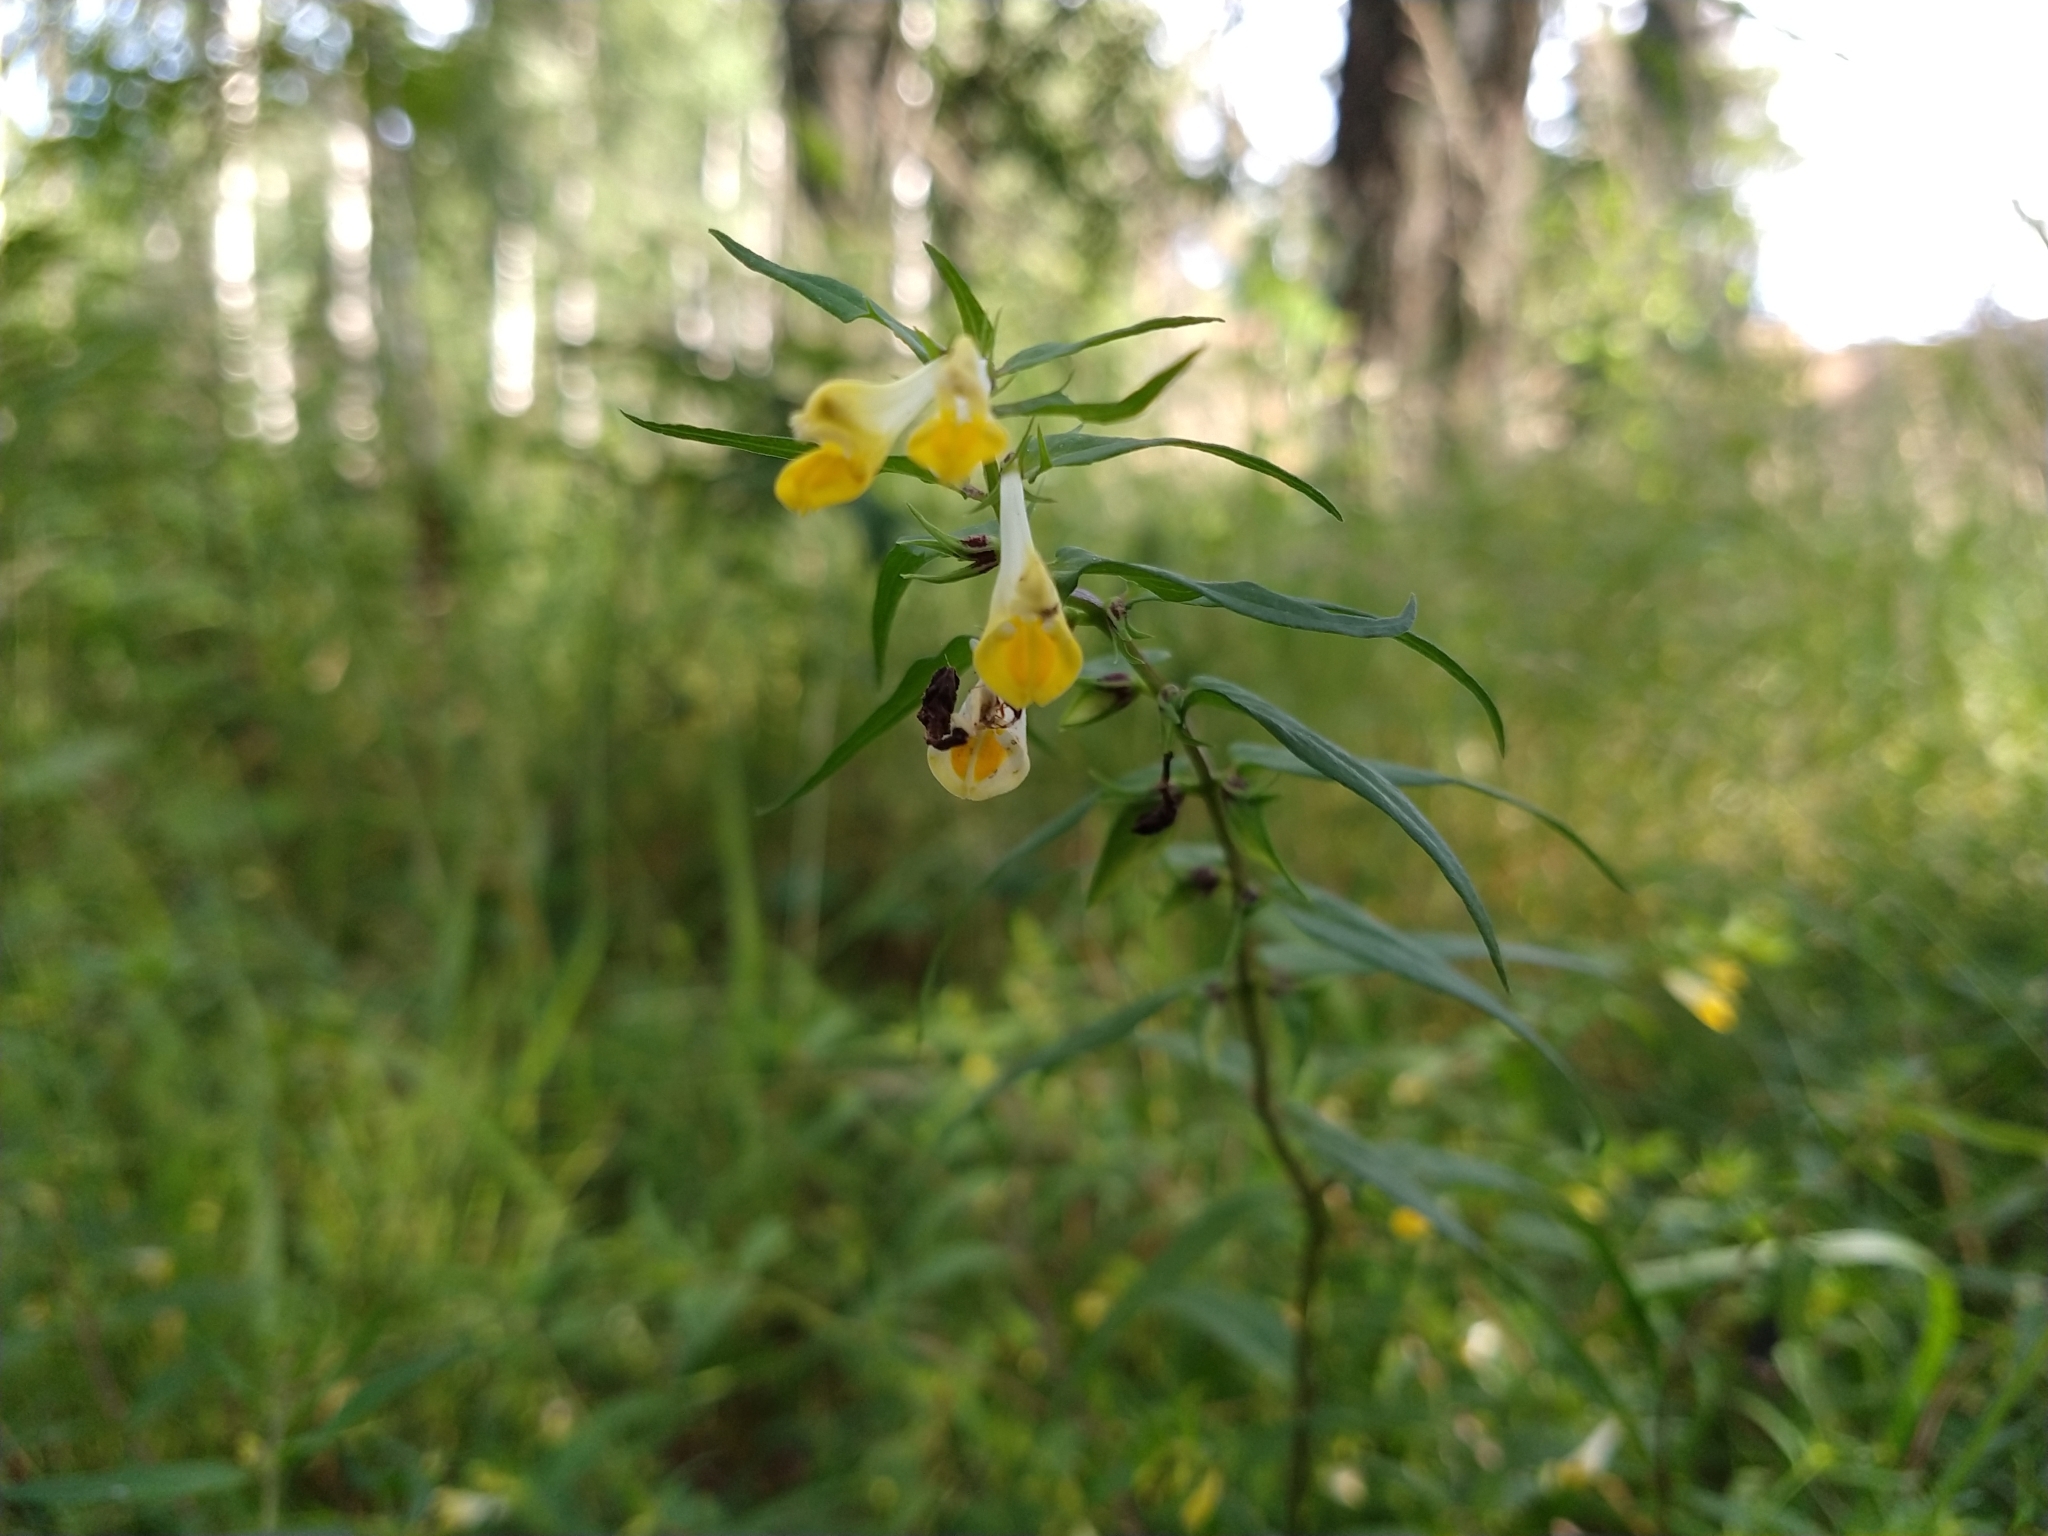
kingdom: Plantae
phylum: Tracheophyta
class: Magnoliopsida
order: Lamiales
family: Orobanchaceae
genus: Melampyrum
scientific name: Melampyrum pratense
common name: Common cow-wheat
